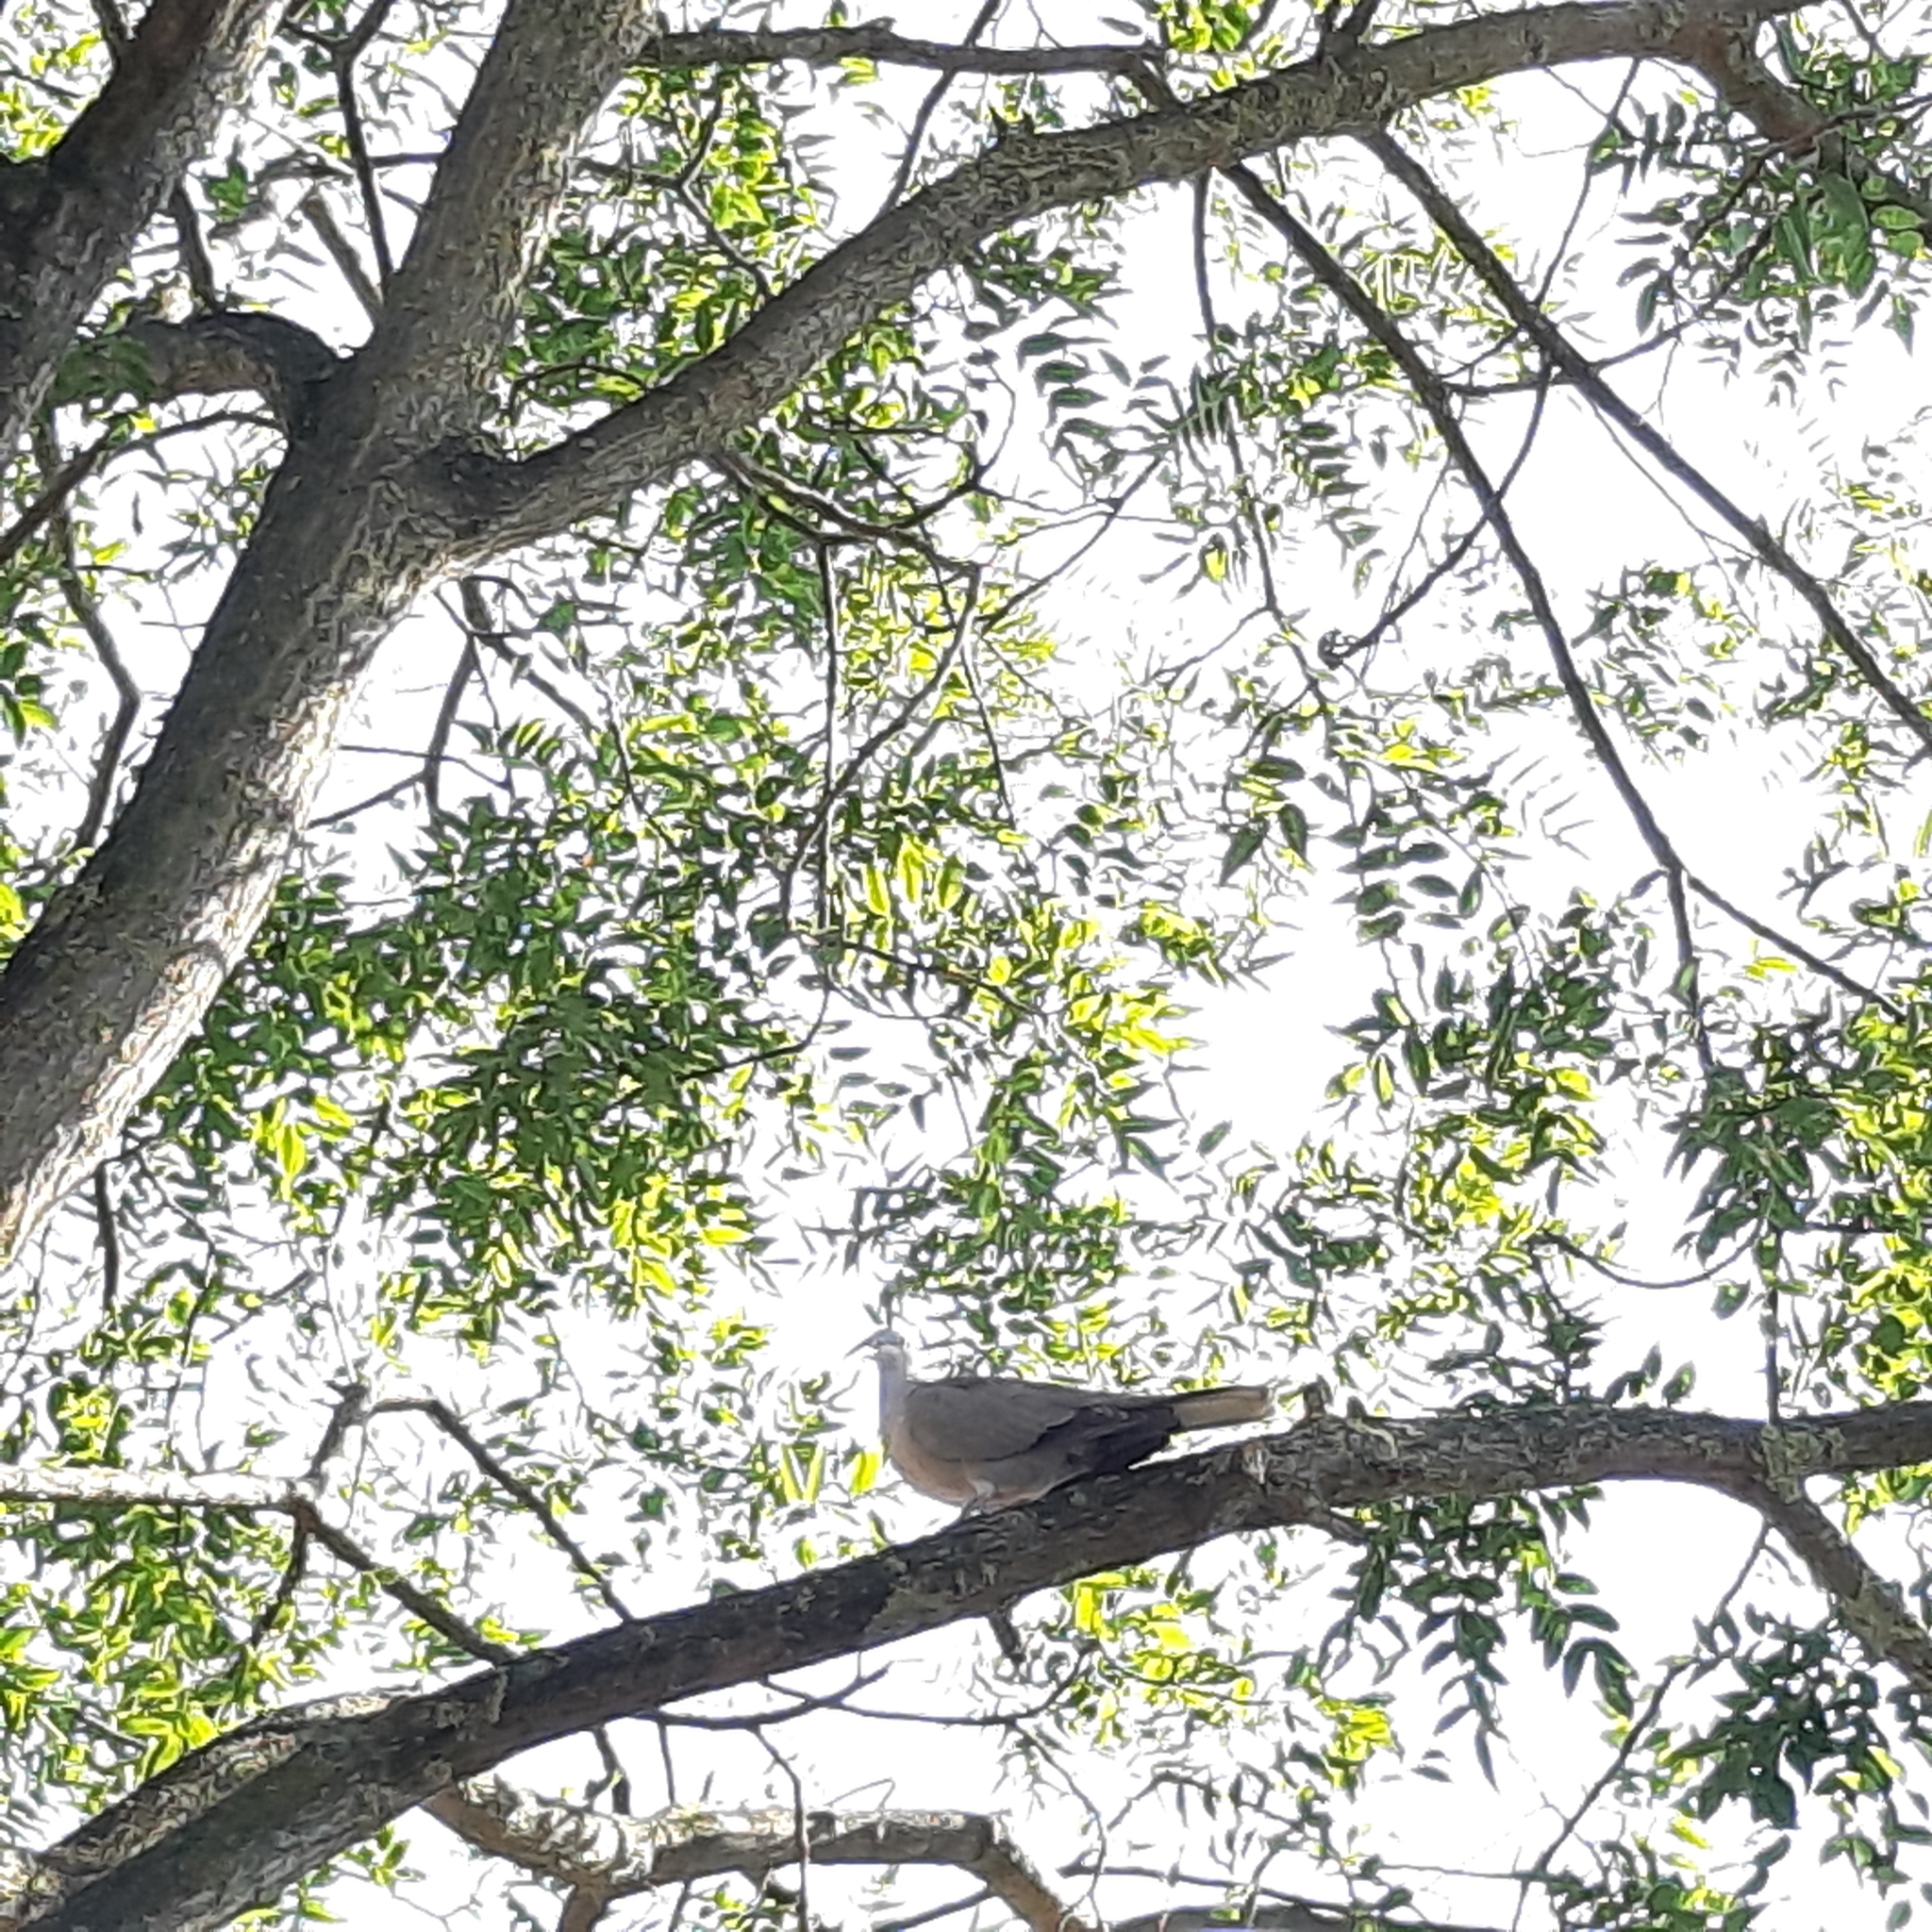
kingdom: Animalia
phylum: Chordata
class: Aves
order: Columbiformes
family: Columbidae
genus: Streptopelia
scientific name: Streptopelia decaocto
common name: Eurasian collared dove
